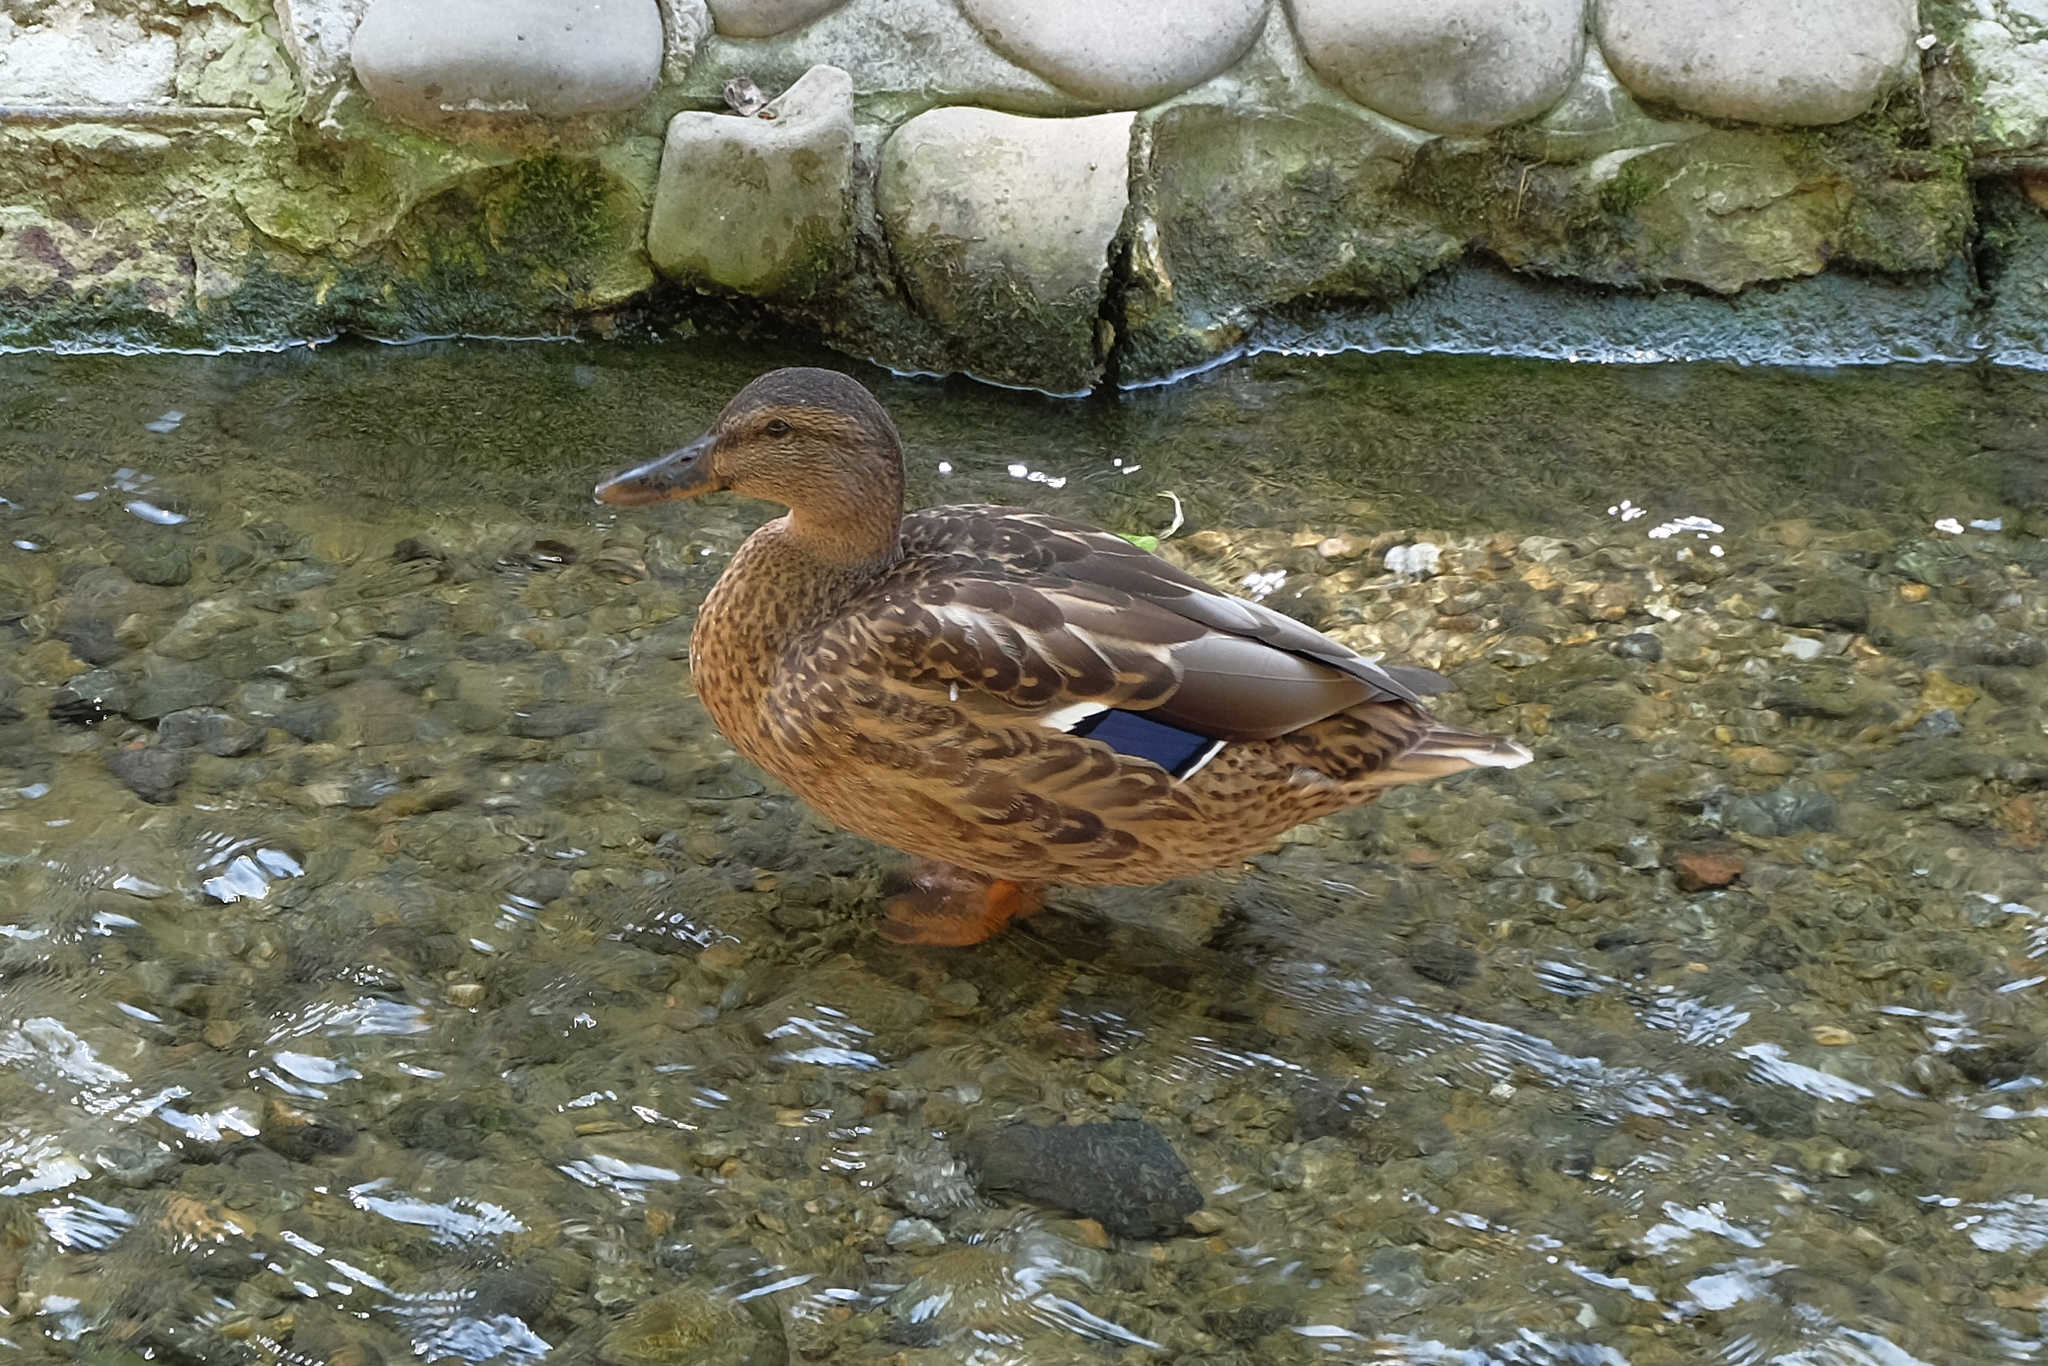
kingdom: Animalia
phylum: Chordata
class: Aves
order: Anseriformes
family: Anatidae
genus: Anas
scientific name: Anas platyrhynchos
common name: Mallard
